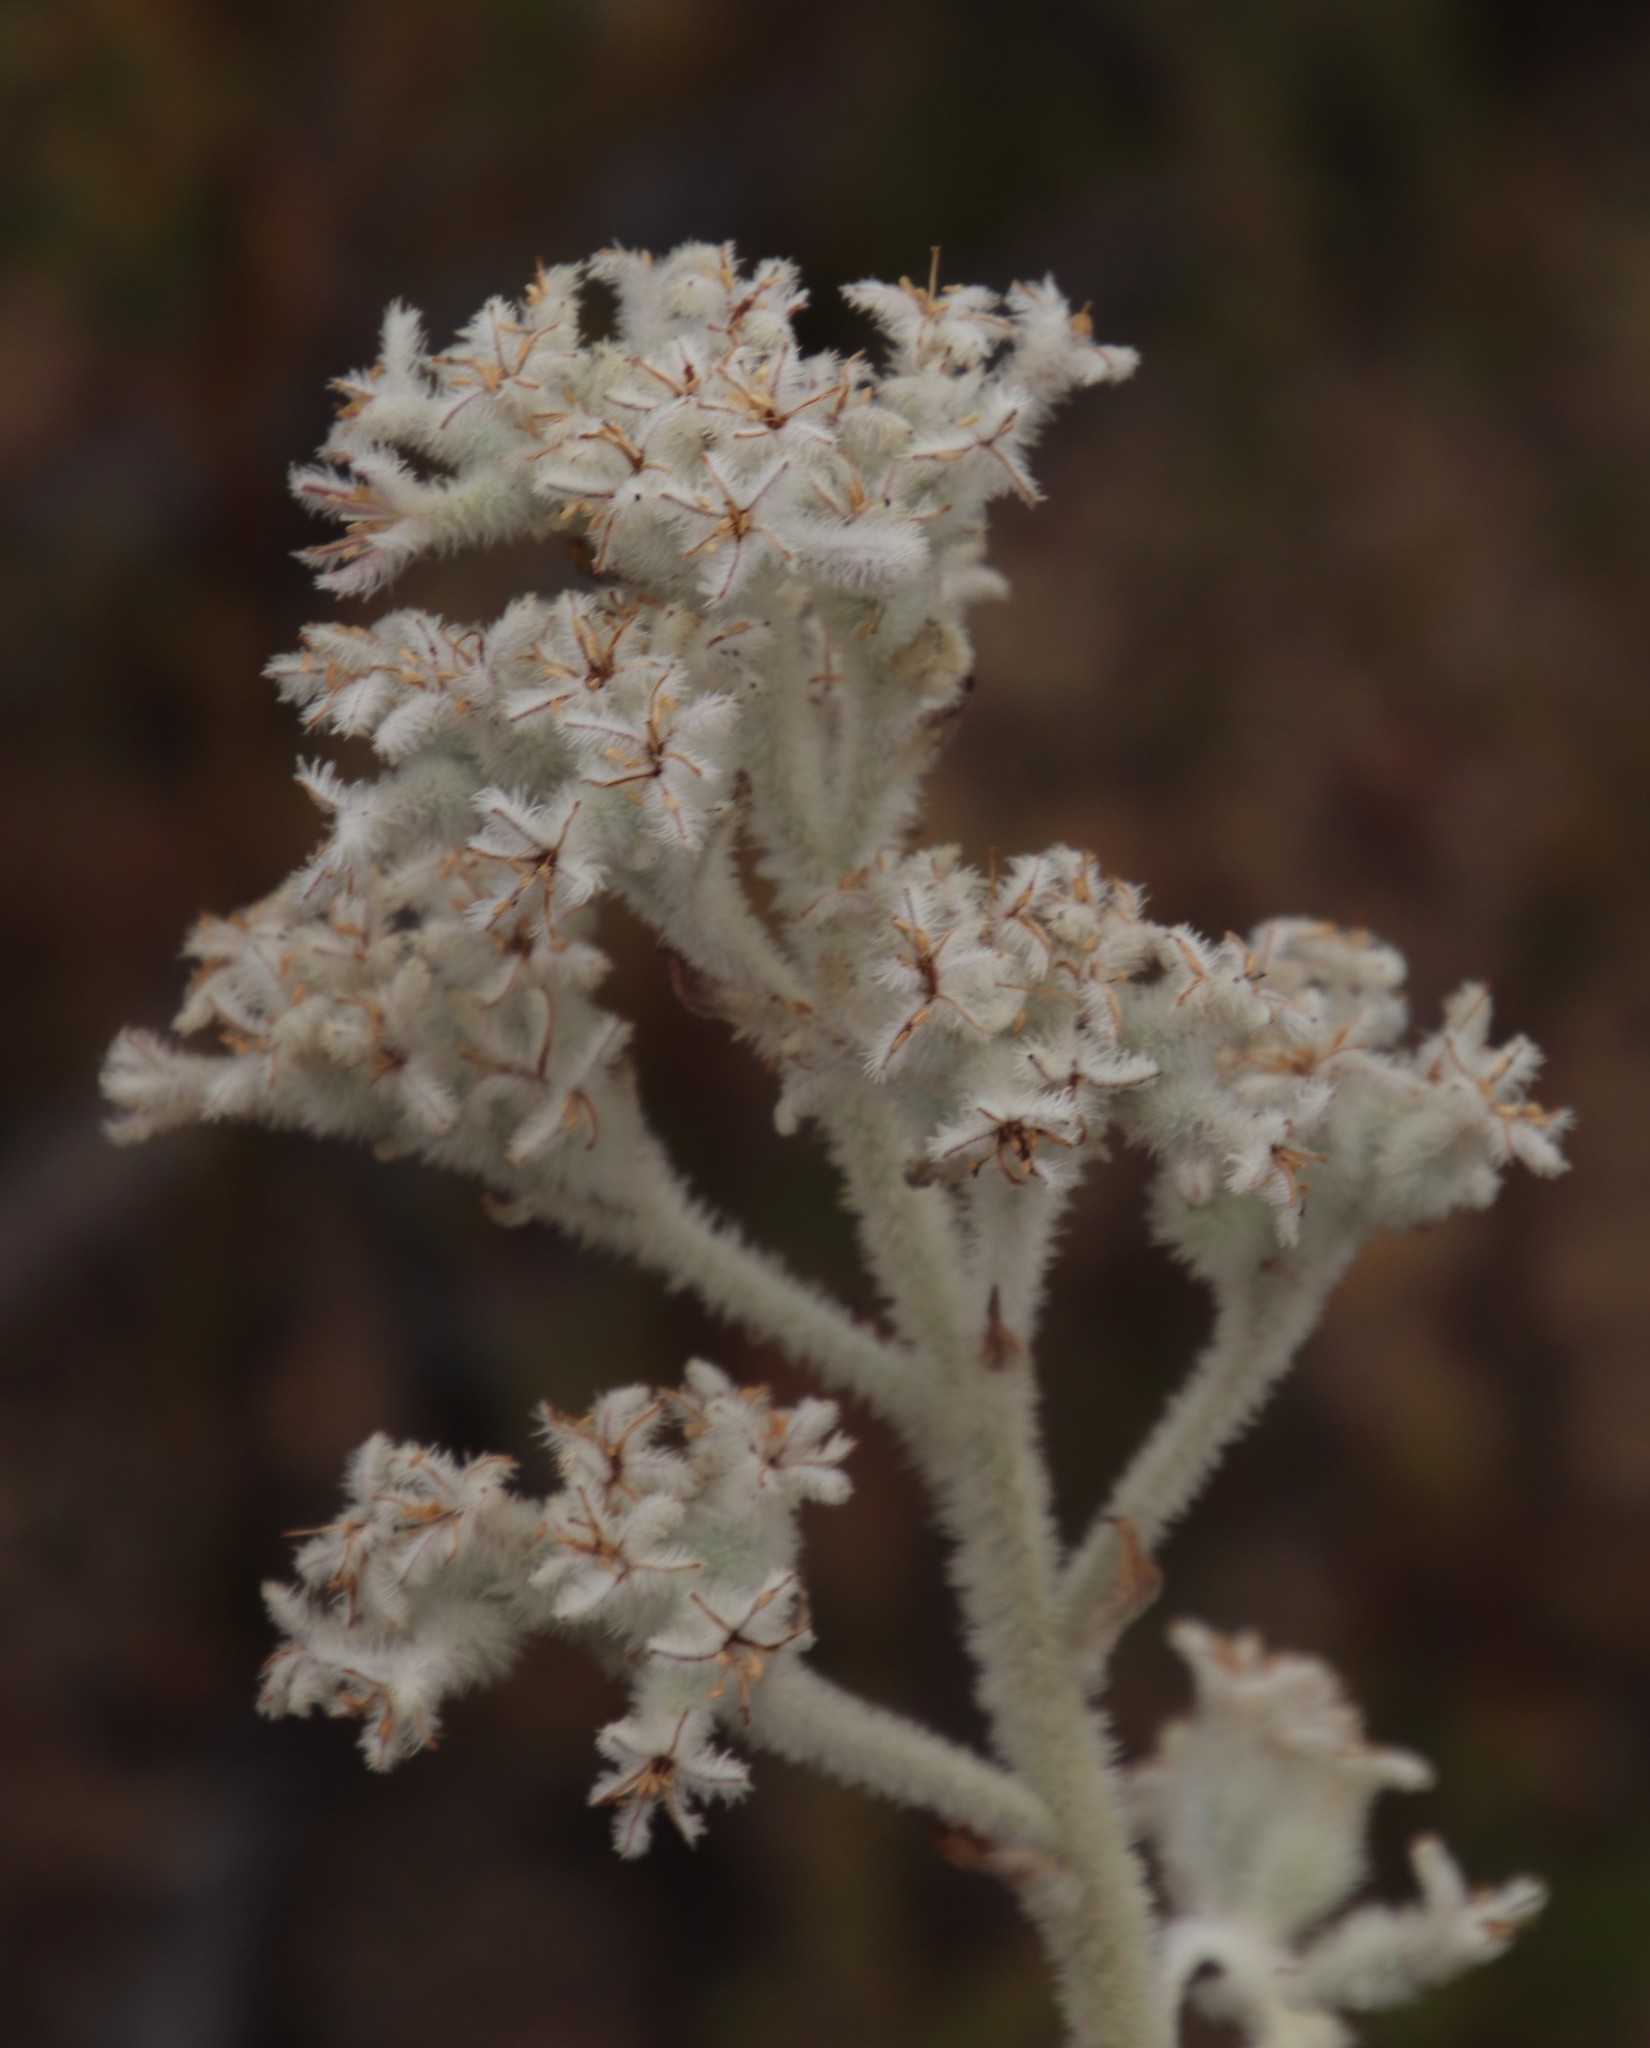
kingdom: Plantae
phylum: Tracheophyta
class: Liliopsida
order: Asparagales
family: Lanariaceae
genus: Lanaria
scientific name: Lanaria lanata
